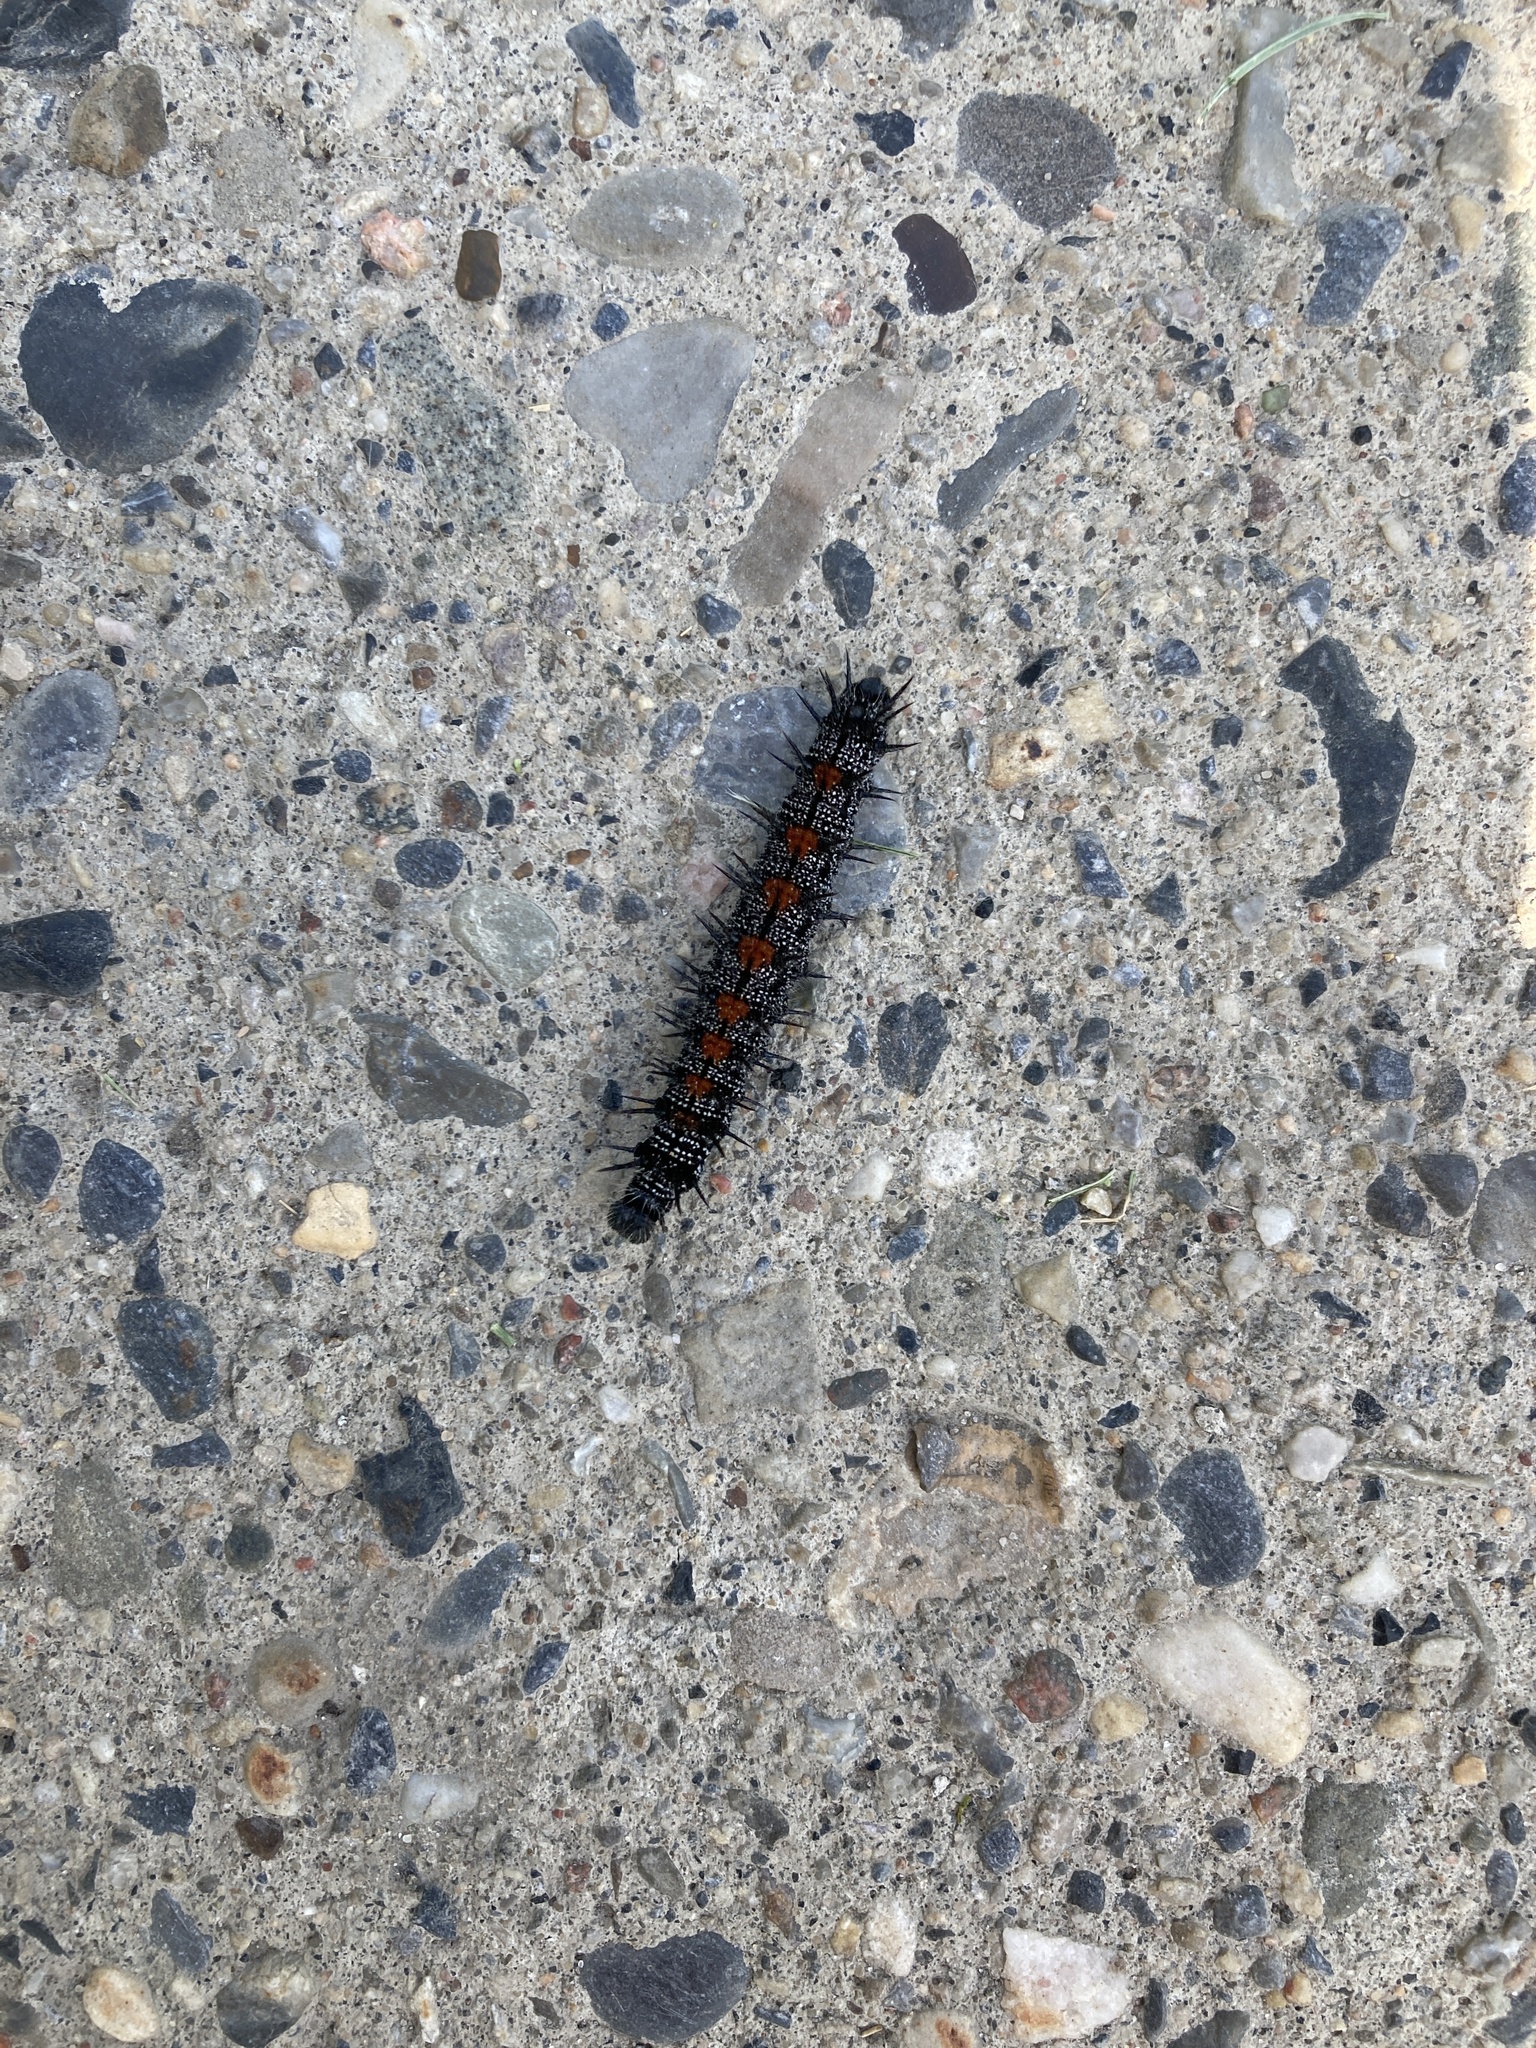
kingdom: Animalia
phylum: Arthropoda
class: Insecta
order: Lepidoptera
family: Nymphalidae
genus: Nymphalis
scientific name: Nymphalis antiopa
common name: Camberwell beauty
